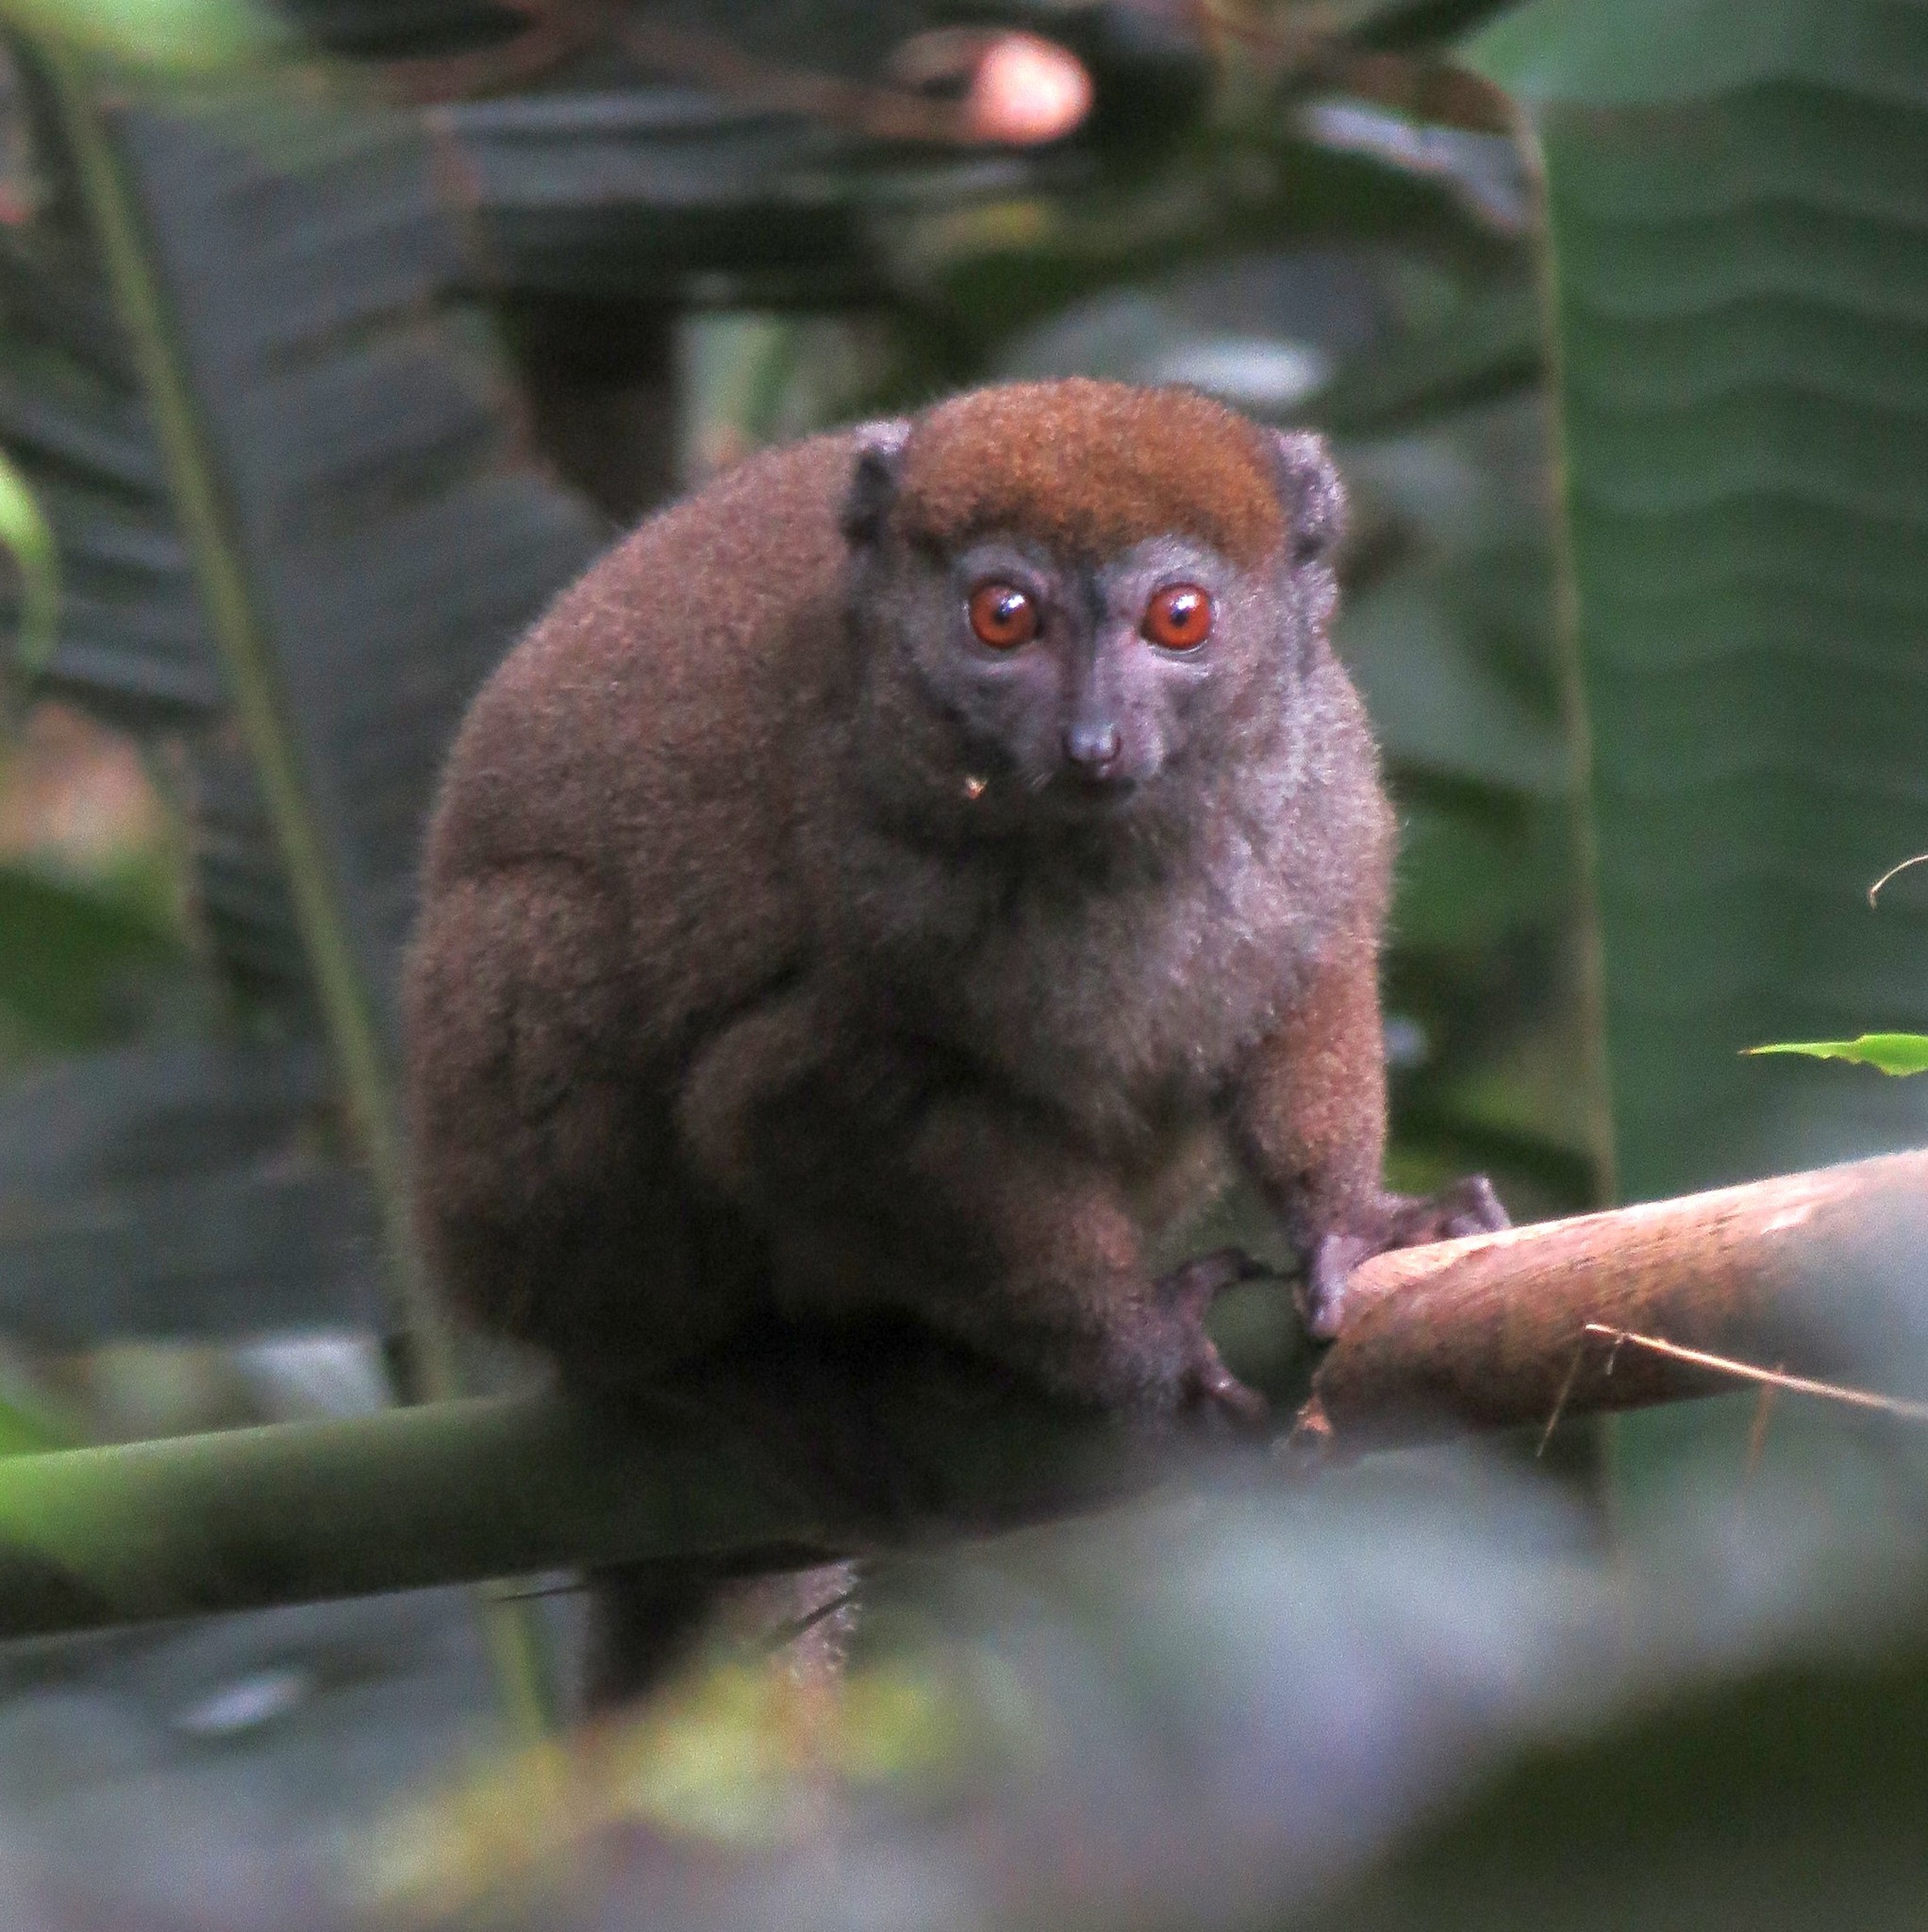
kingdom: Animalia
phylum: Chordata
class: Mammalia
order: Primates
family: Lemuridae
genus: Hapalemur
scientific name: Hapalemur occidentalis
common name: Sambirano bamboo lemur
